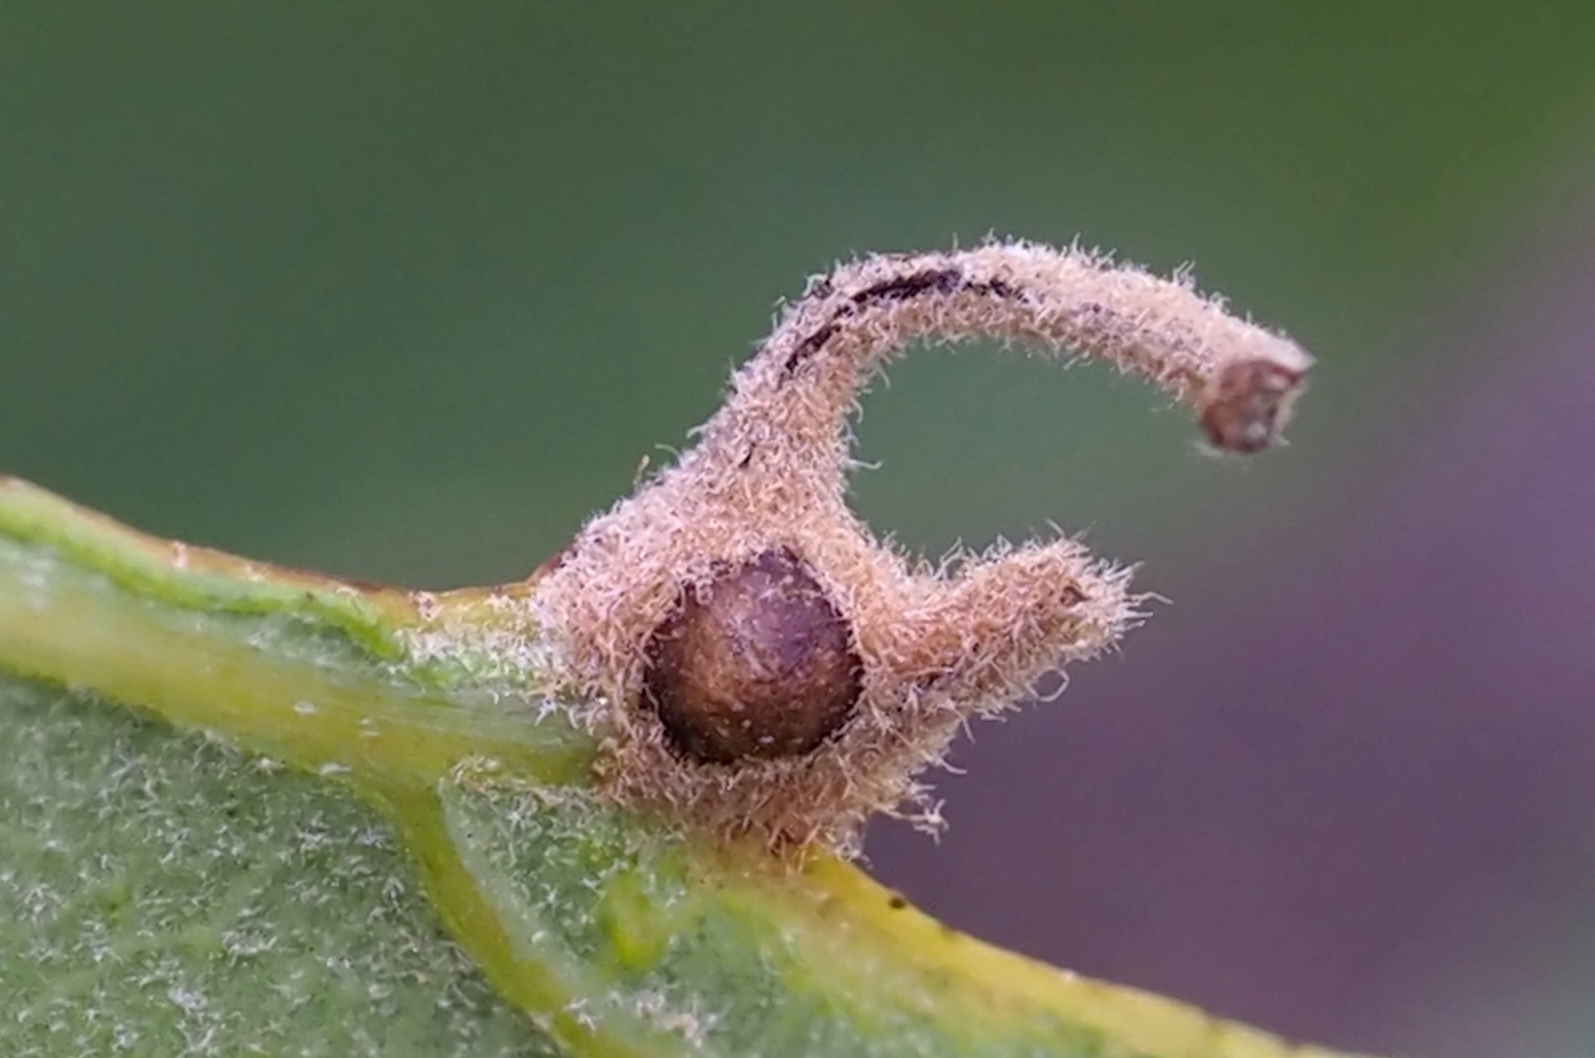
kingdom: Animalia
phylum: Arthropoda
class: Insecta
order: Hymenoptera
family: Cynipidae
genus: Andricus
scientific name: Andricus
